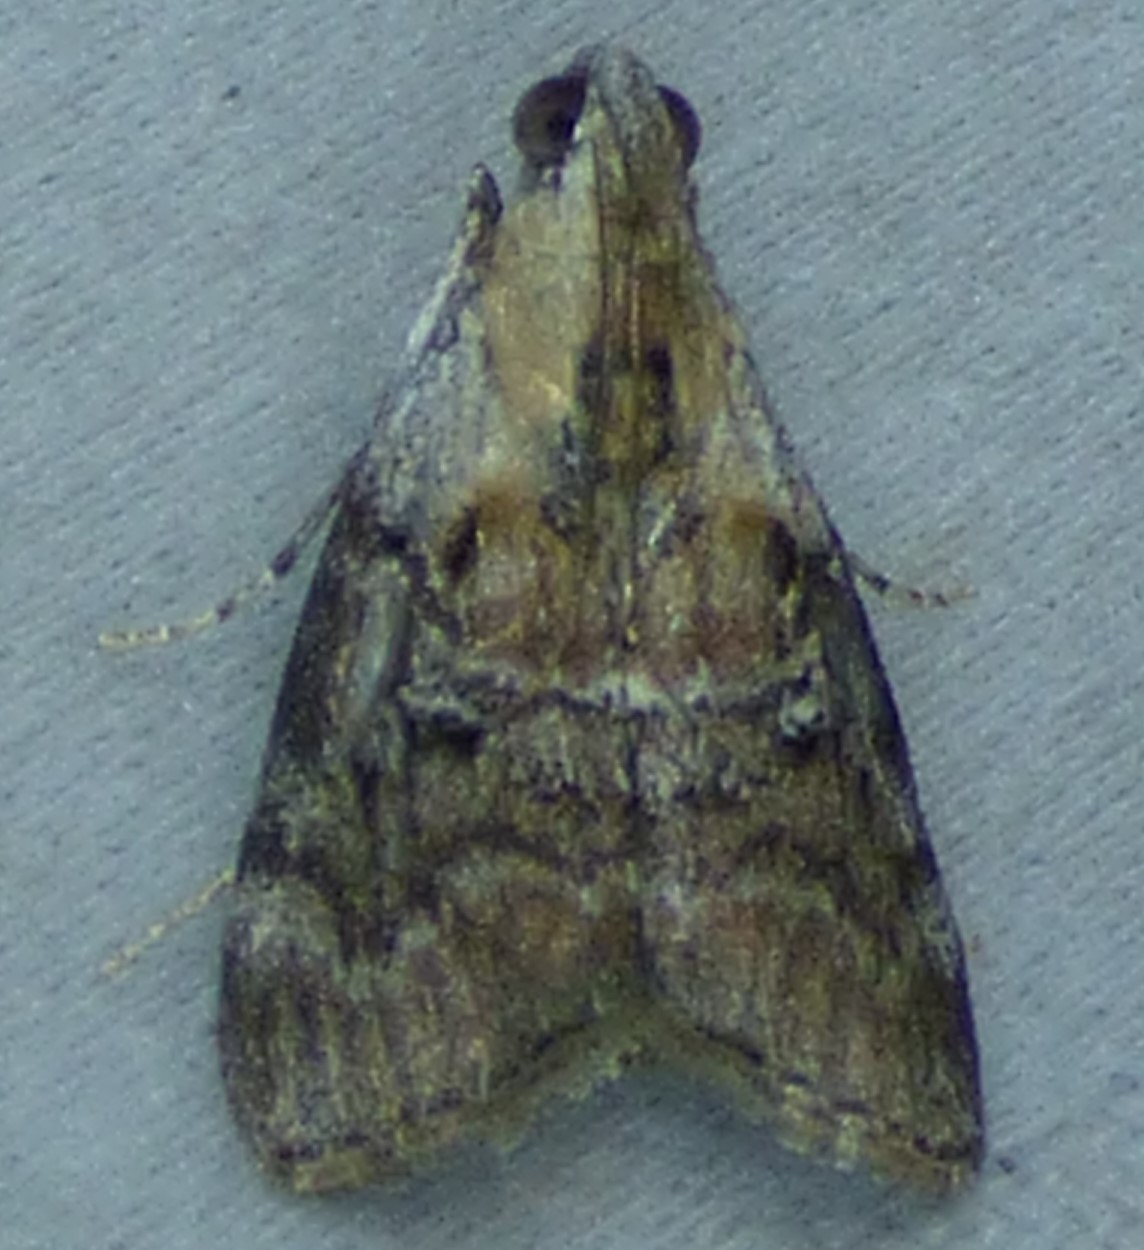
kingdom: Animalia
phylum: Arthropoda
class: Insecta
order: Lepidoptera
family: Pyralidae
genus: Pococera
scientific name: Pococera expandens
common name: Striped oak webworm moth
